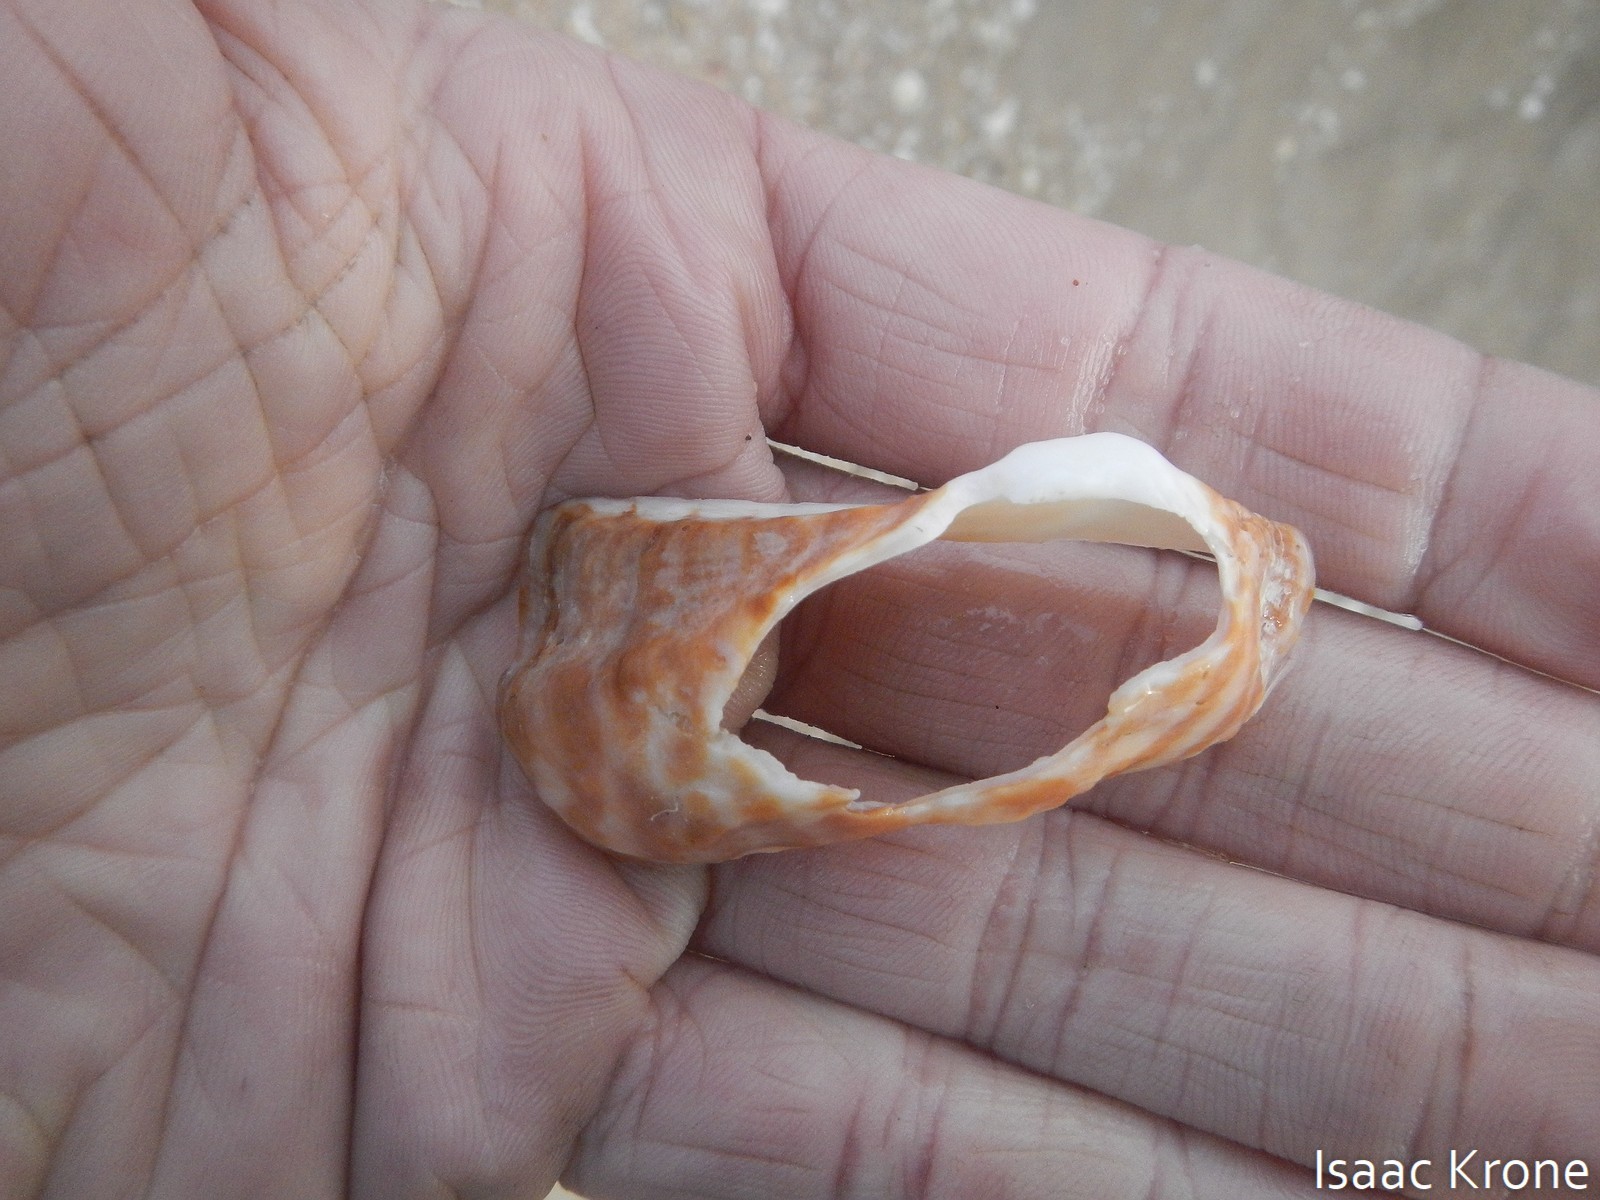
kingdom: Animalia
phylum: Mollusca
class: Bivalvia
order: Arcida
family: Arcidae
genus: Arca
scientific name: Arca pacifica
